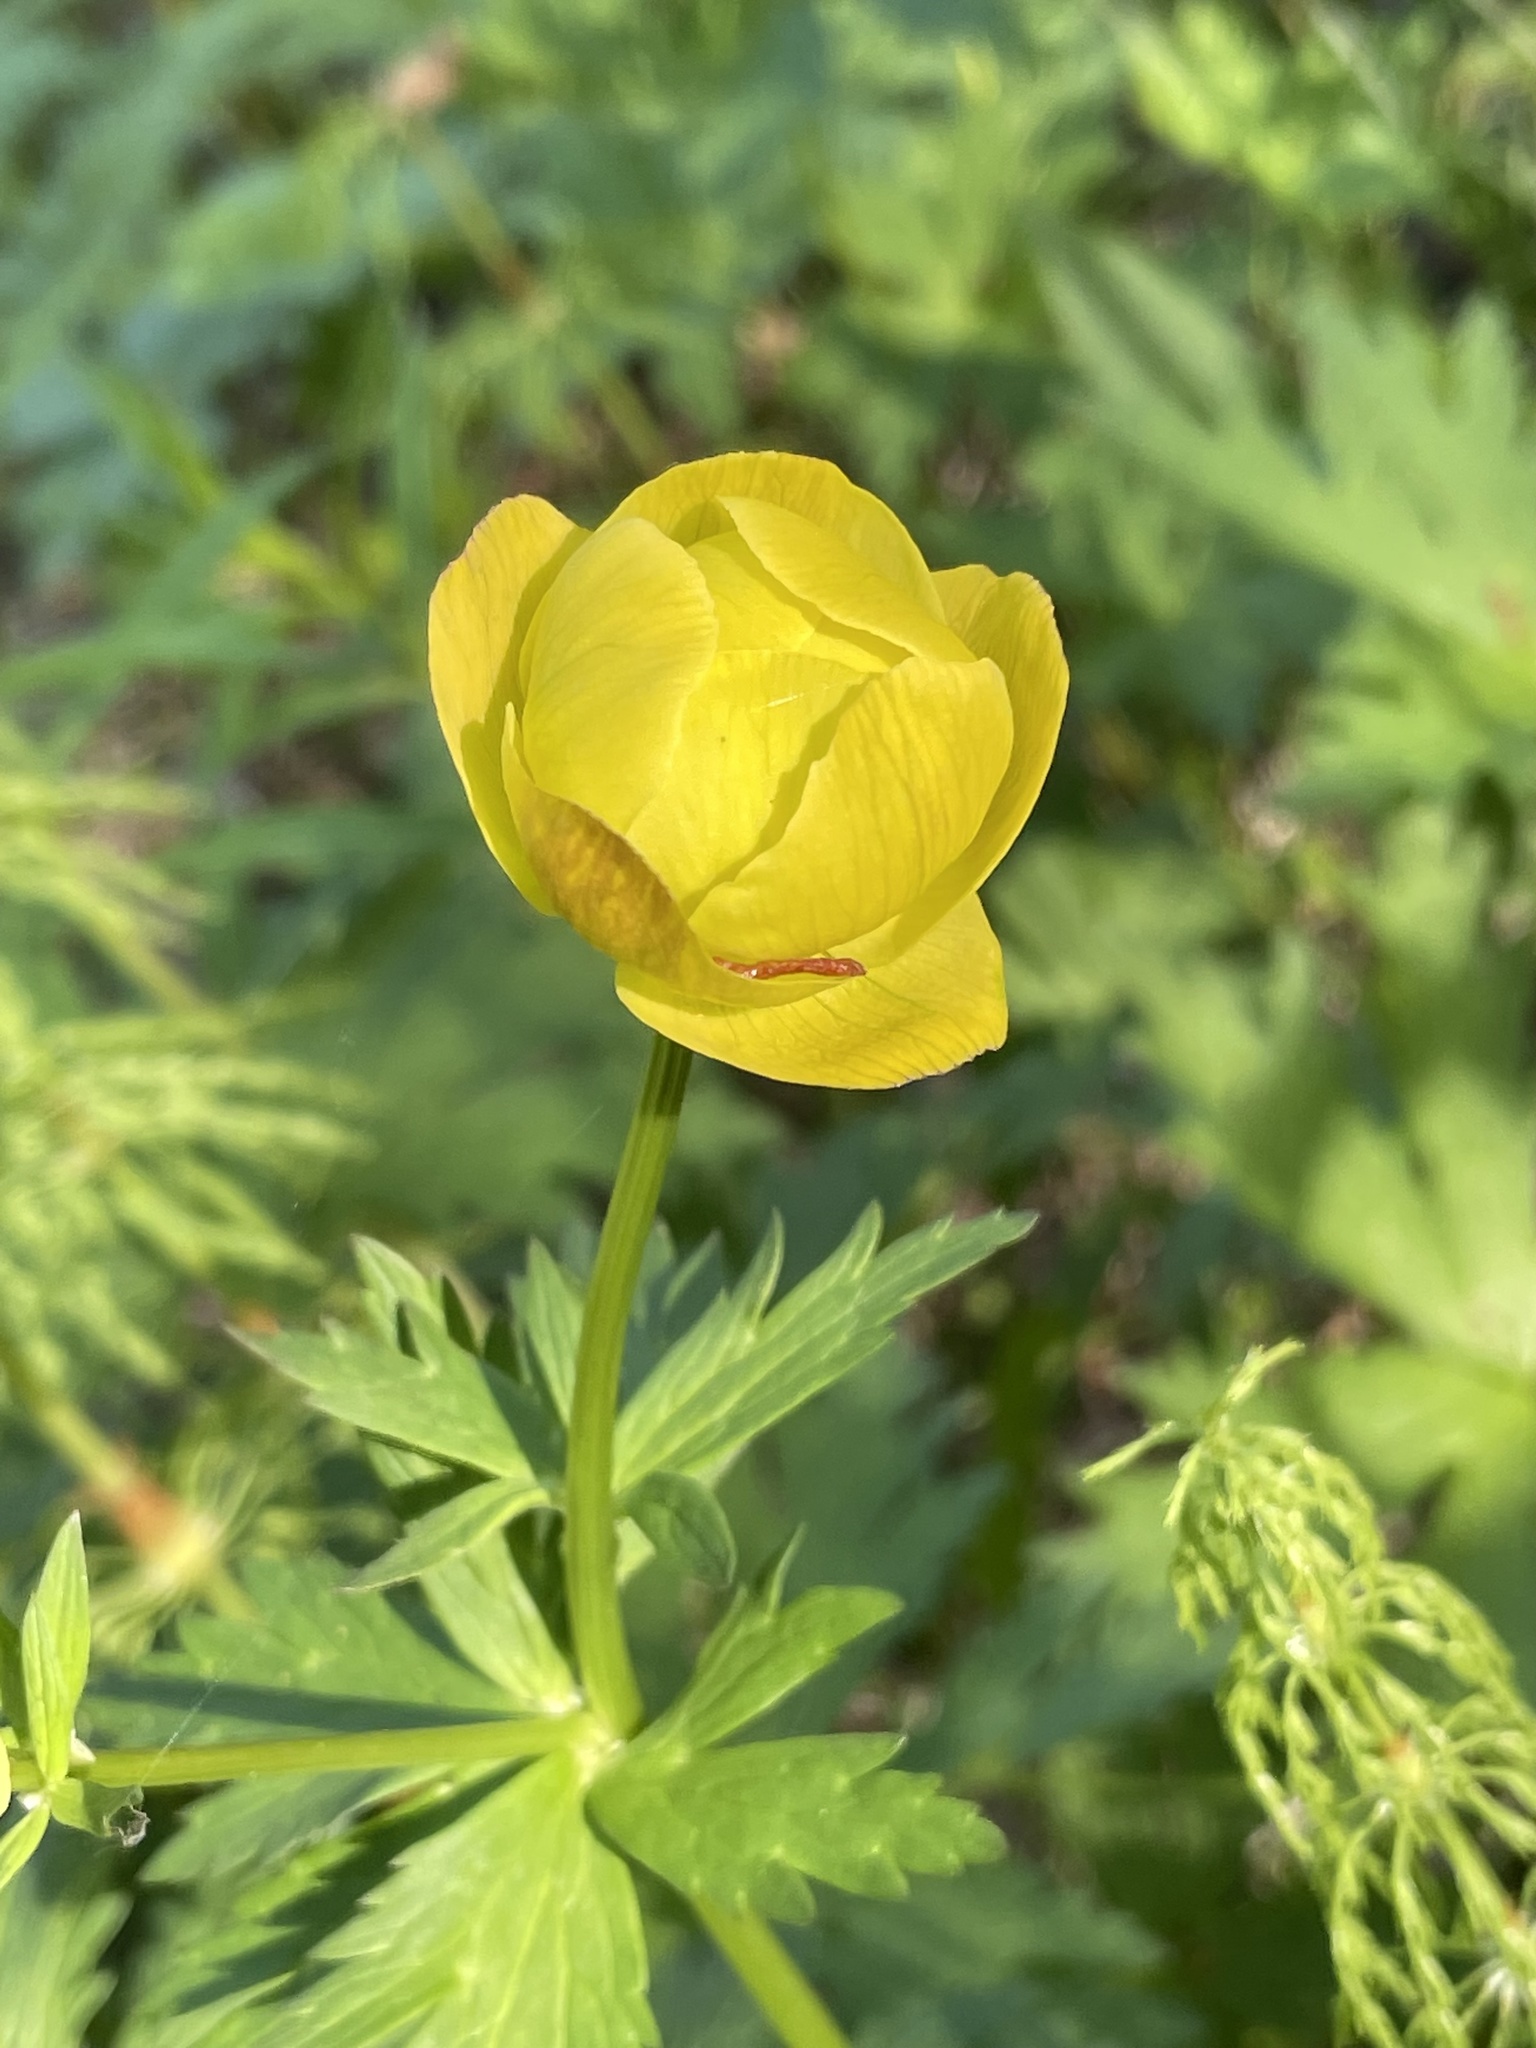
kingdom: Plantae
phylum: Tracheophyta
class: Magnoliopsida
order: Ranunculales
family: Ranunculaceae
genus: Trollius
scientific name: Trollius europaeus
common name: European globeflower
